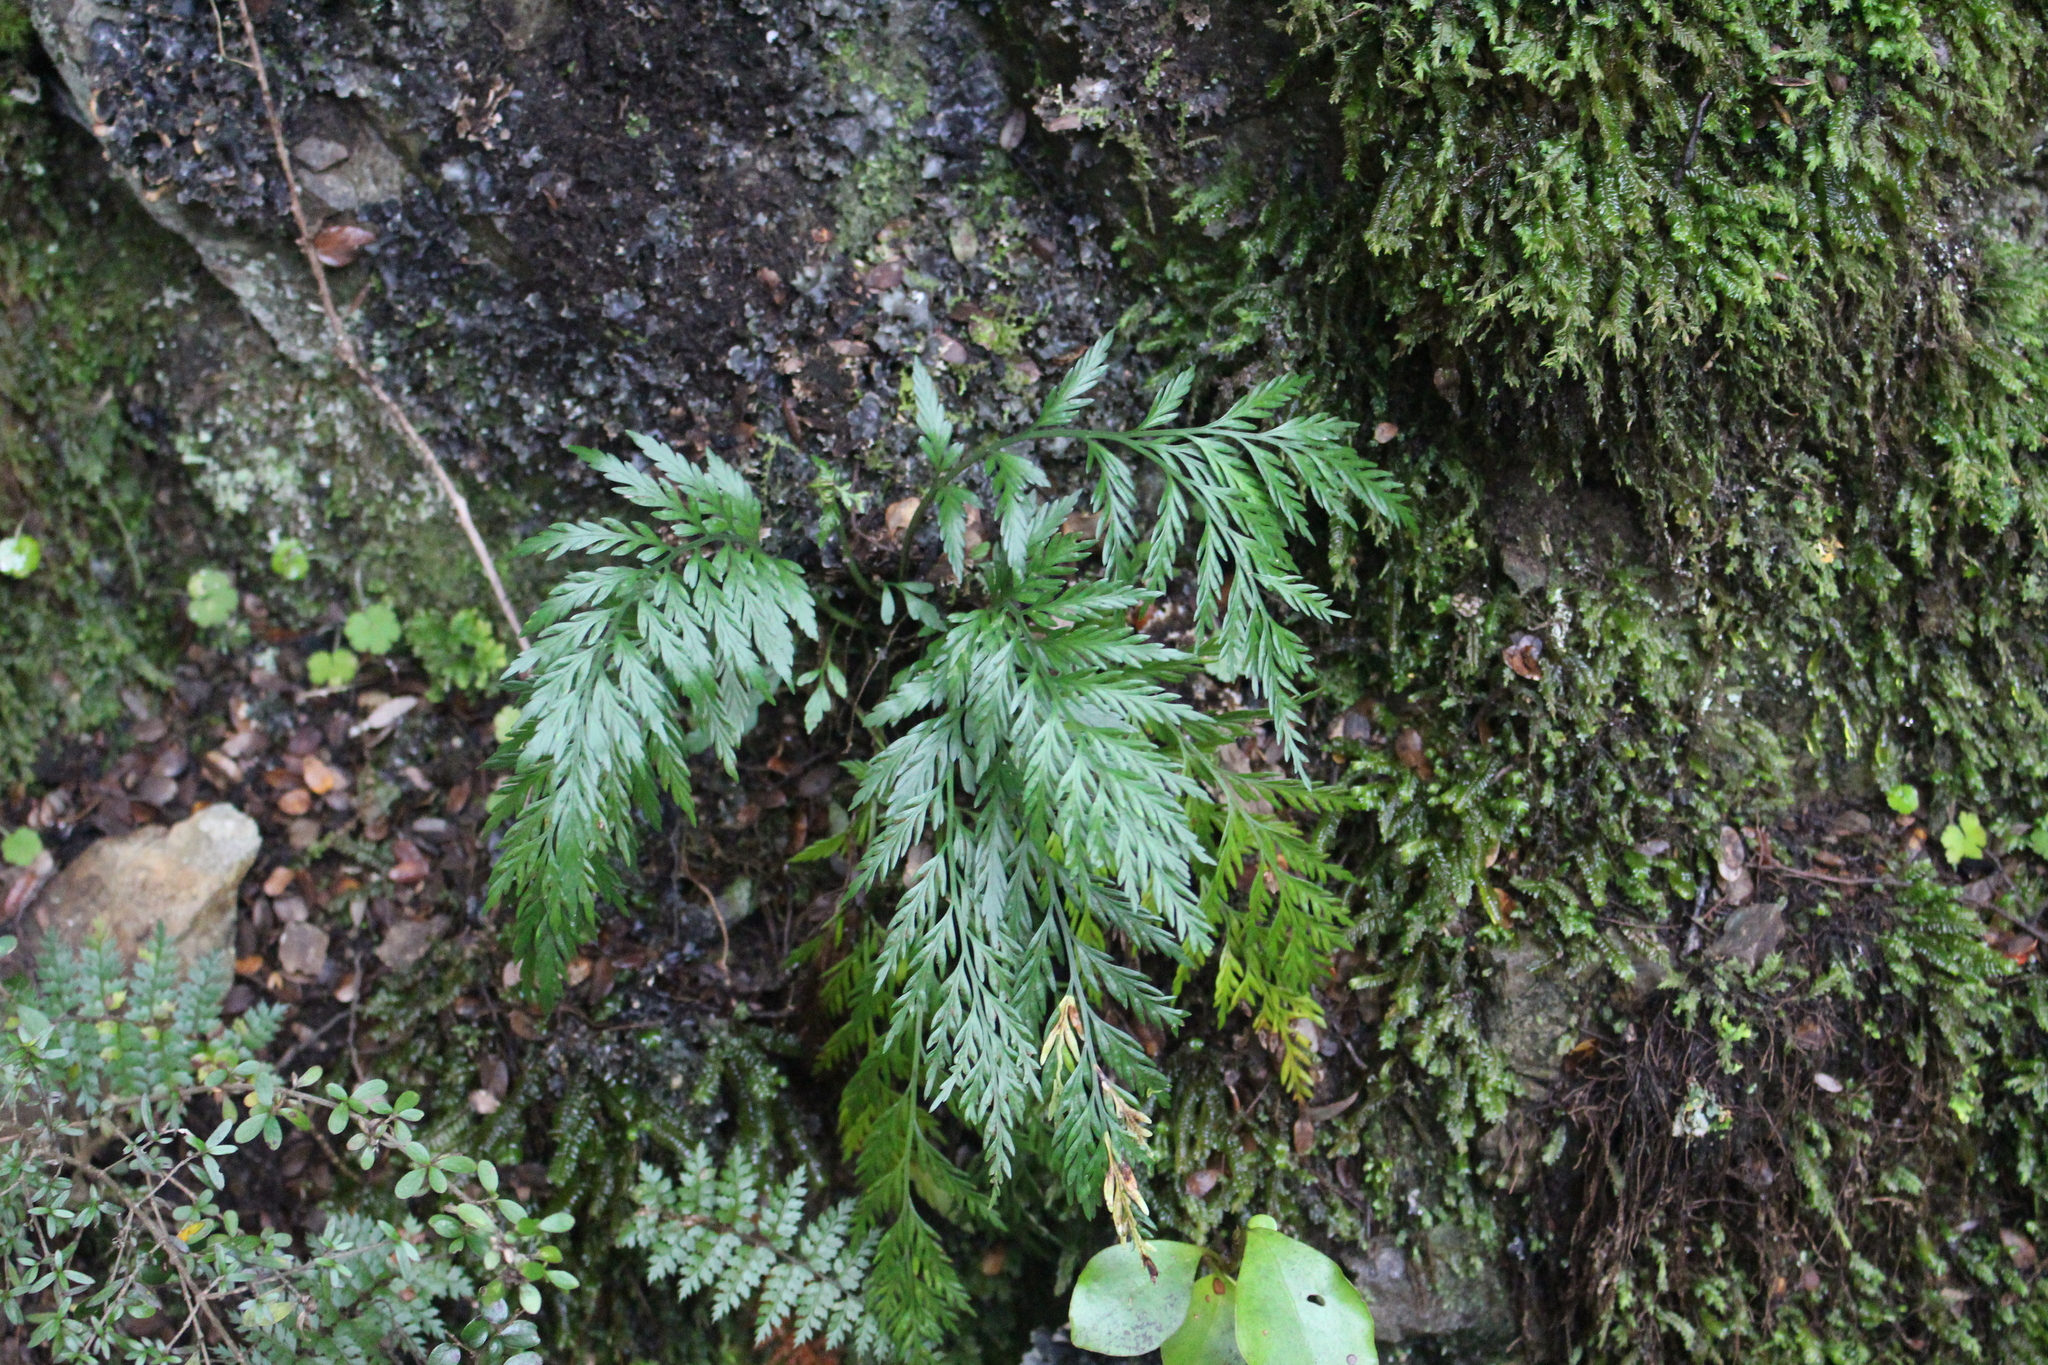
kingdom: Plantae
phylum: Tracheophyta
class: Polypodiopsida
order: Polypodiales
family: Aspleniaceae
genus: Asplenium
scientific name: Asplenium appendiculatum
